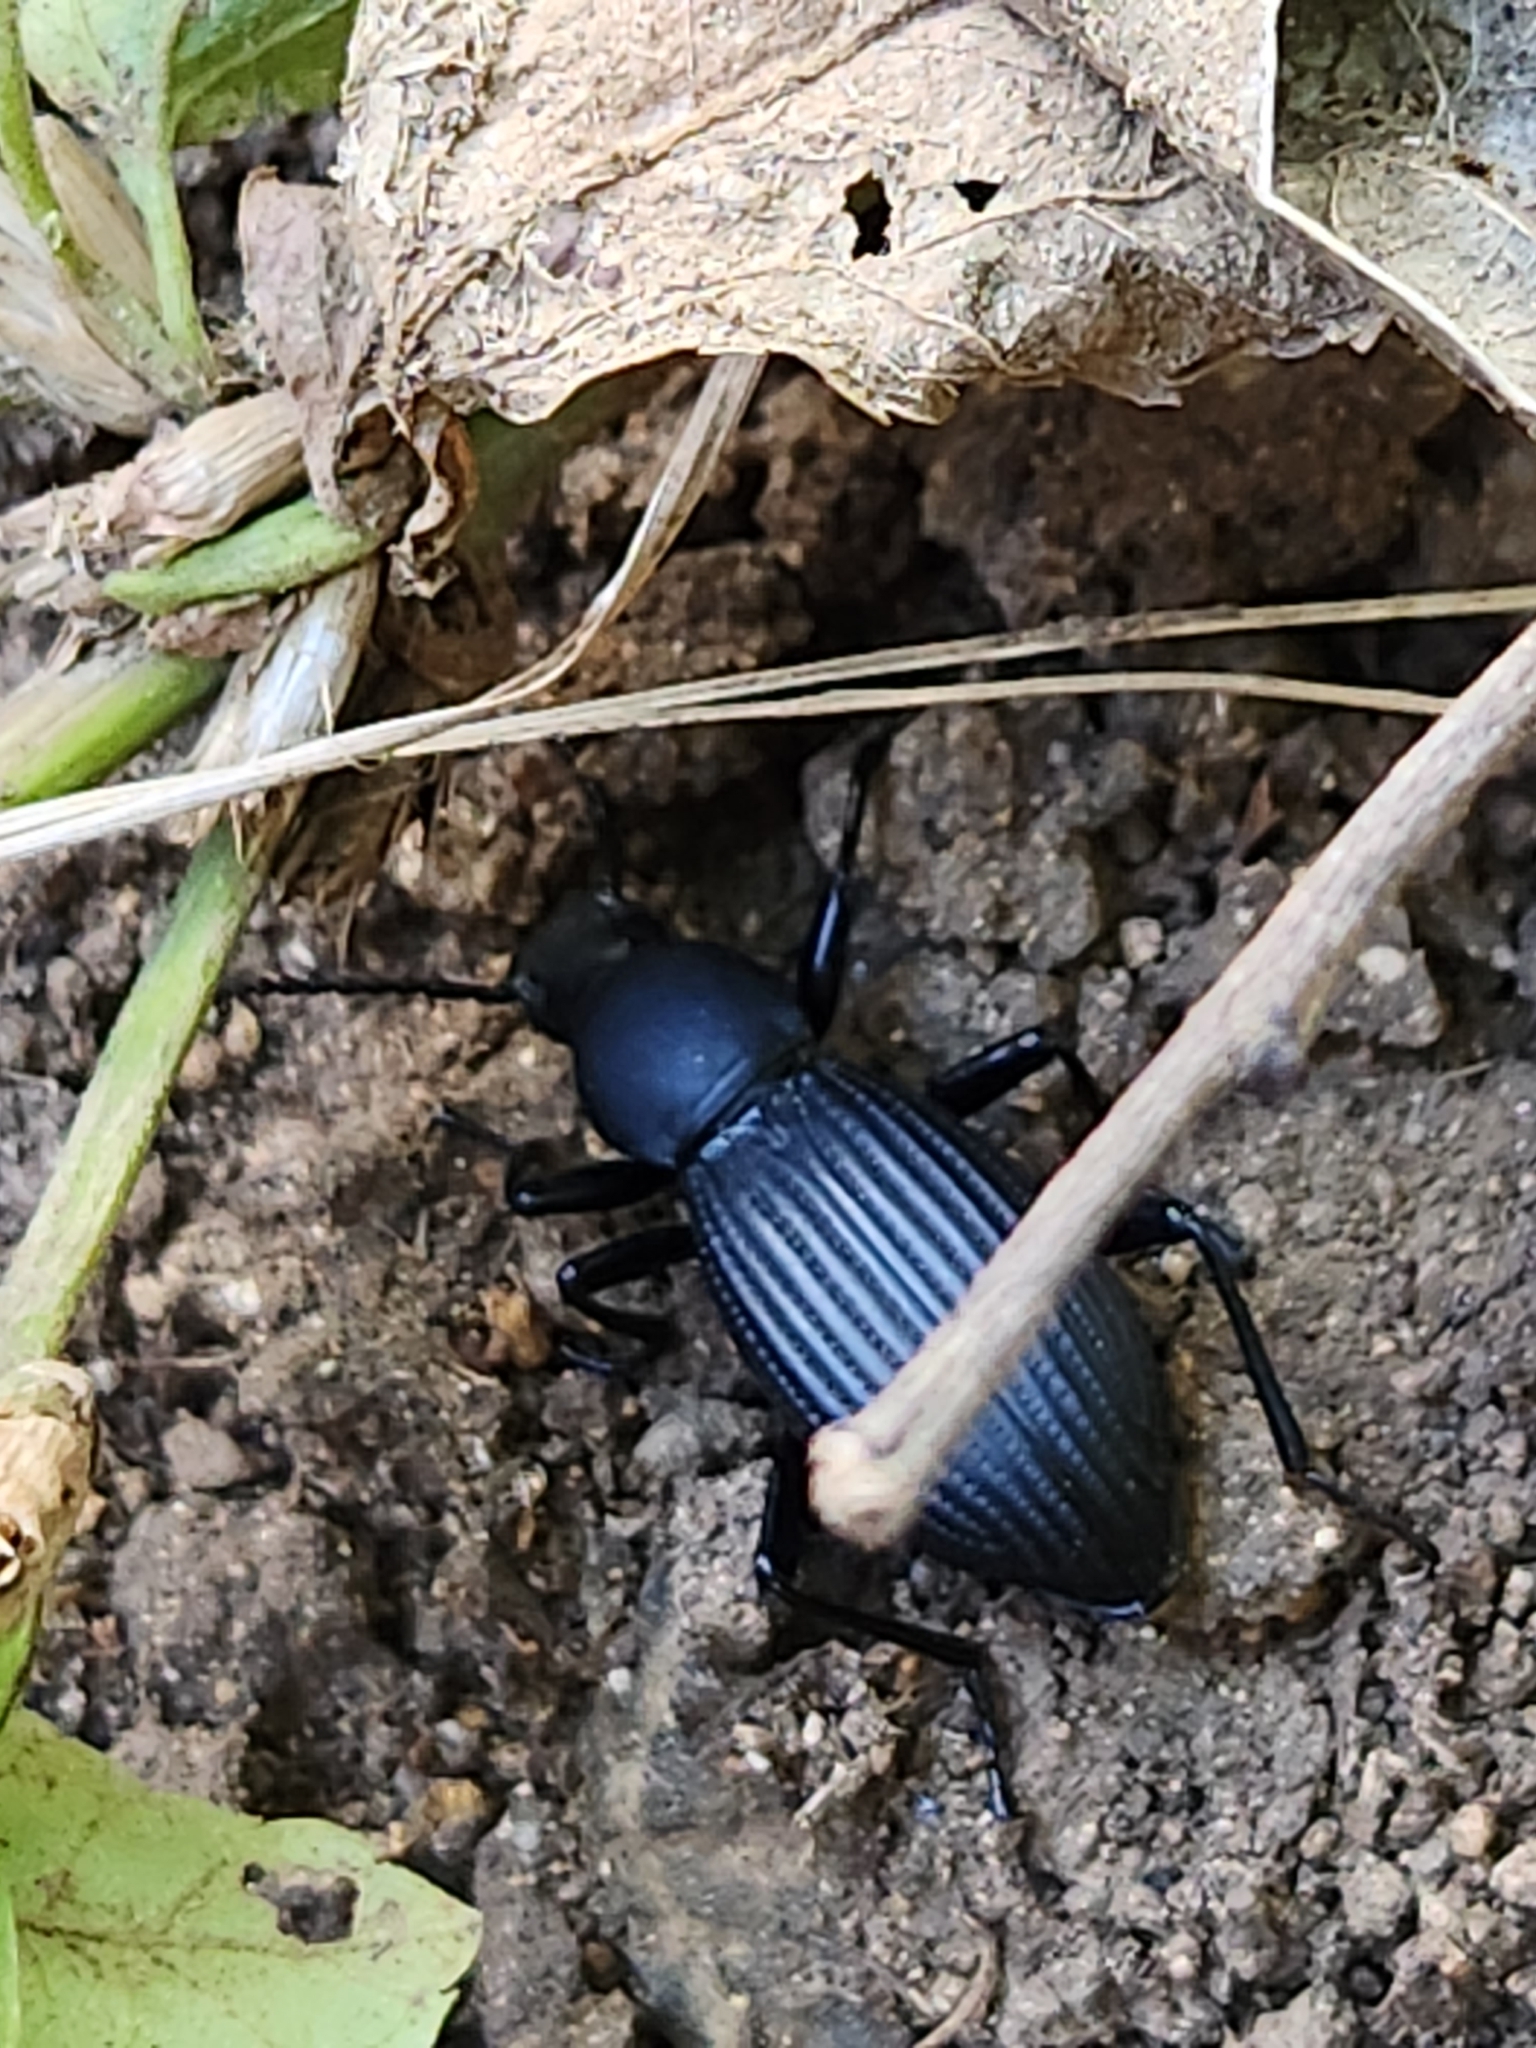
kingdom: Animalia
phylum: Arthropoda
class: Insecta
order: Coleoptera
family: Tenebrionidae
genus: Rhinandrus
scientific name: Rhinandrus elongatus
